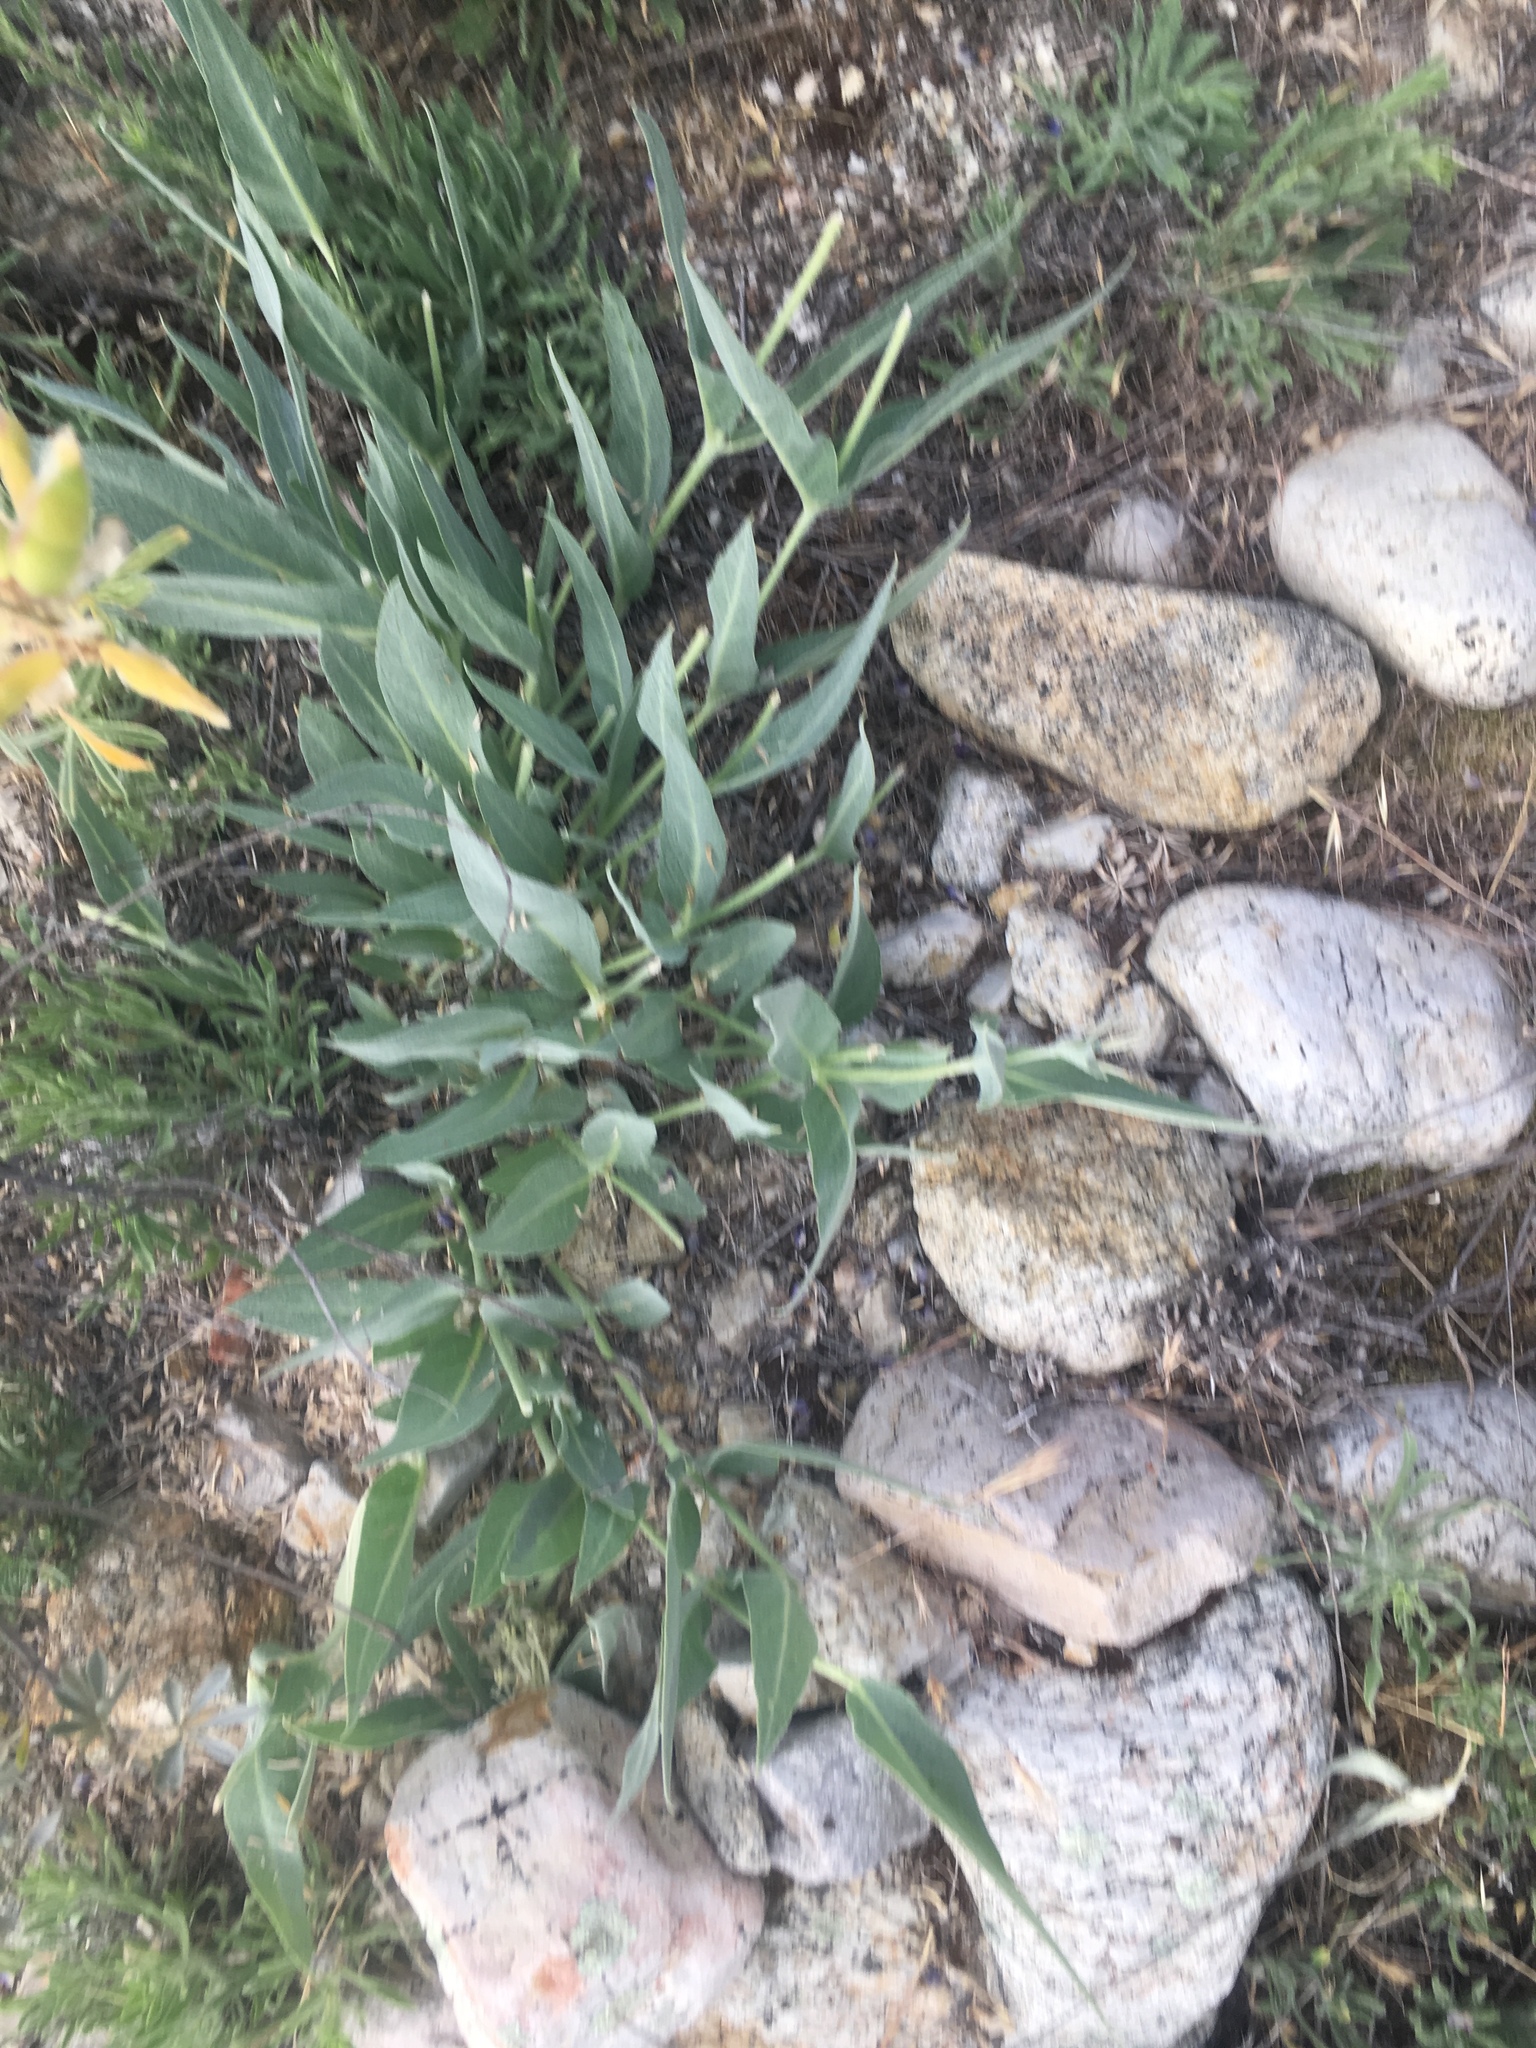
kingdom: Plantae
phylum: Tracheophyta
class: Magnoliopsida
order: Gentianales
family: Apocynaceae
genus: Asclepias
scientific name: Asclepias vestita
